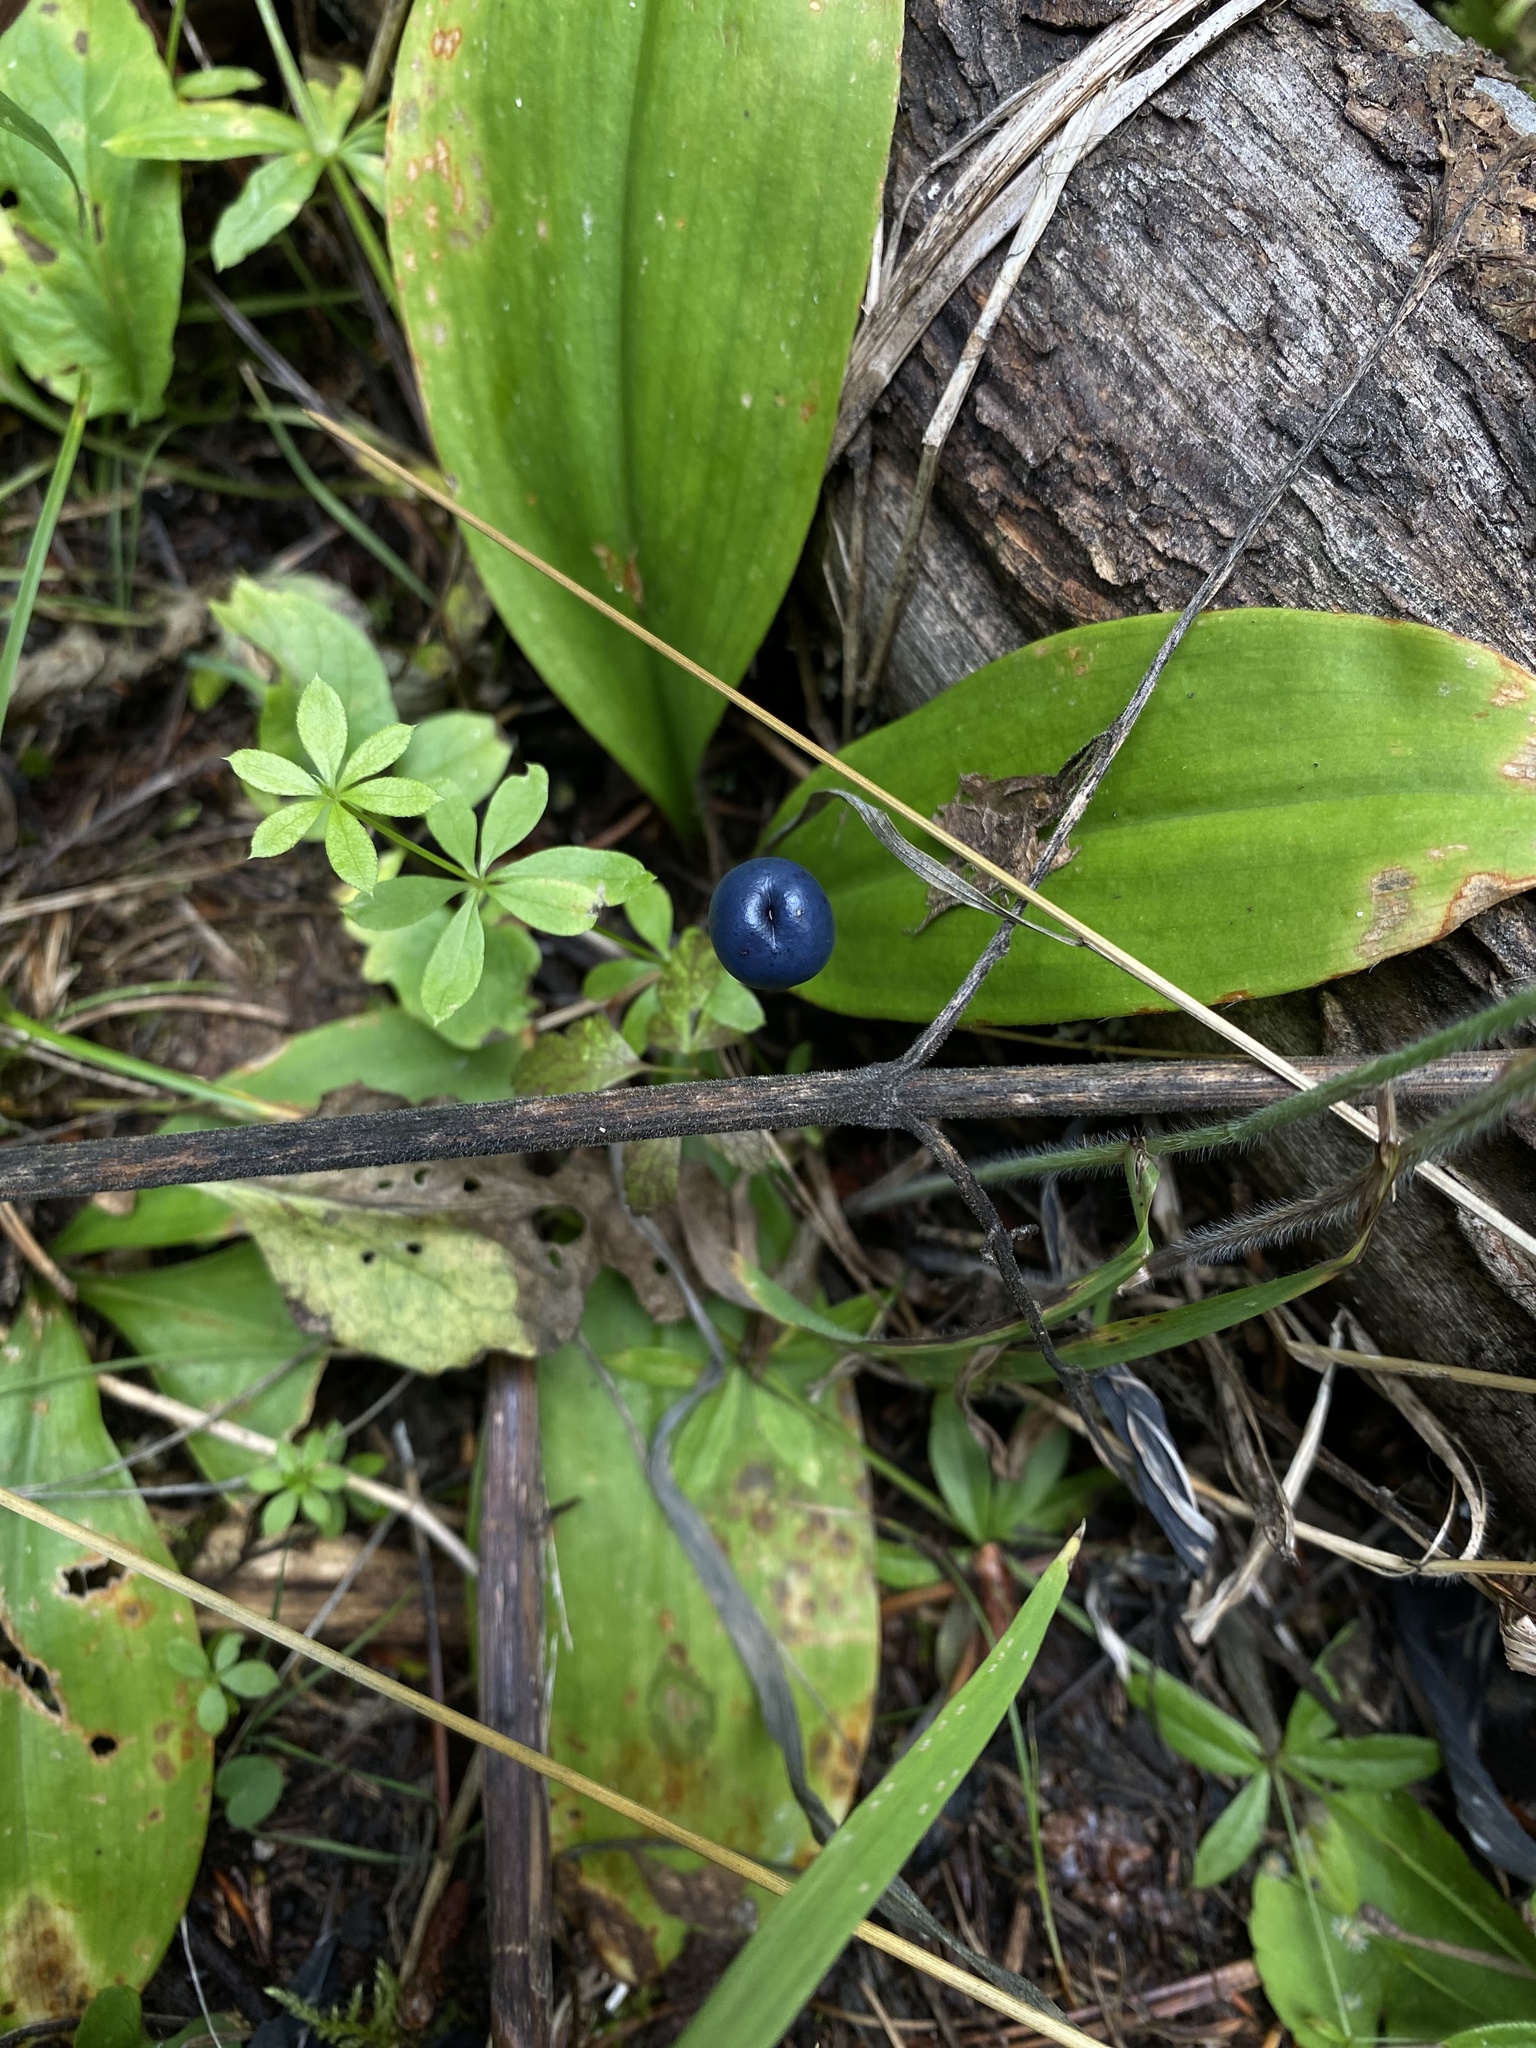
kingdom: Plantae
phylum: Tracheophyta
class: Liliopsida
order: Liliales
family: Liliaceae
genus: Clintonia
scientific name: Clintonia uniflora
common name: Queen's cup
